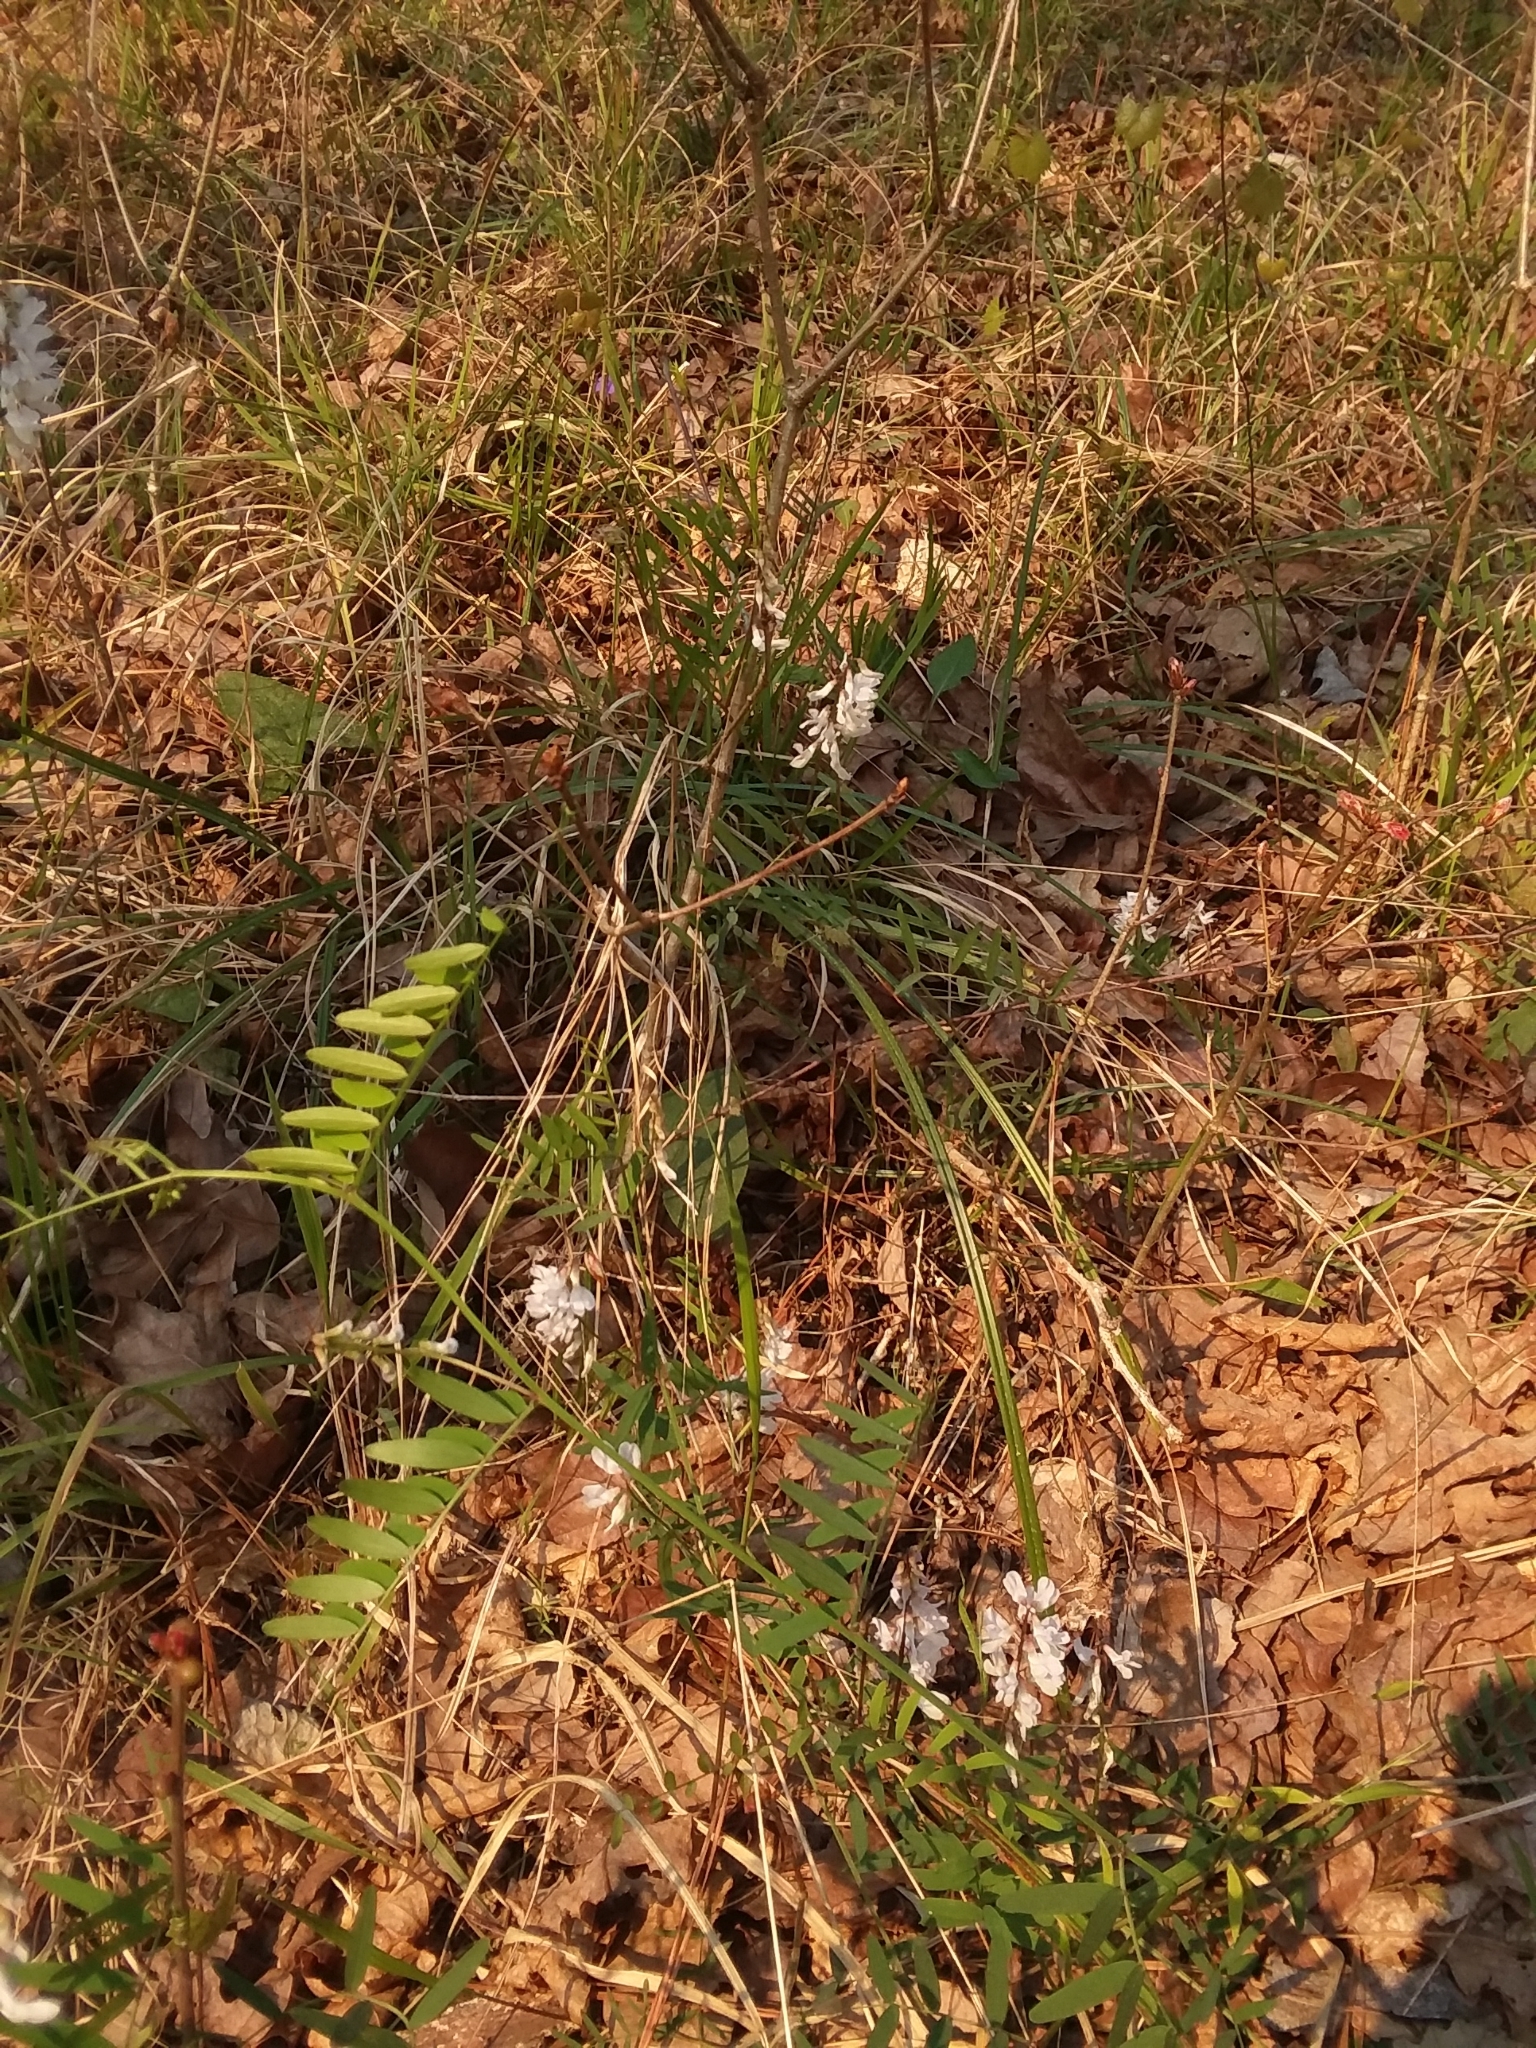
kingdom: Plantae
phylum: Tracheophyta
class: Magnoliopsida
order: Fabales
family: Fabaceae
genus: Vicia
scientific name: Vicia caroliniana
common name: Carolina vetch
